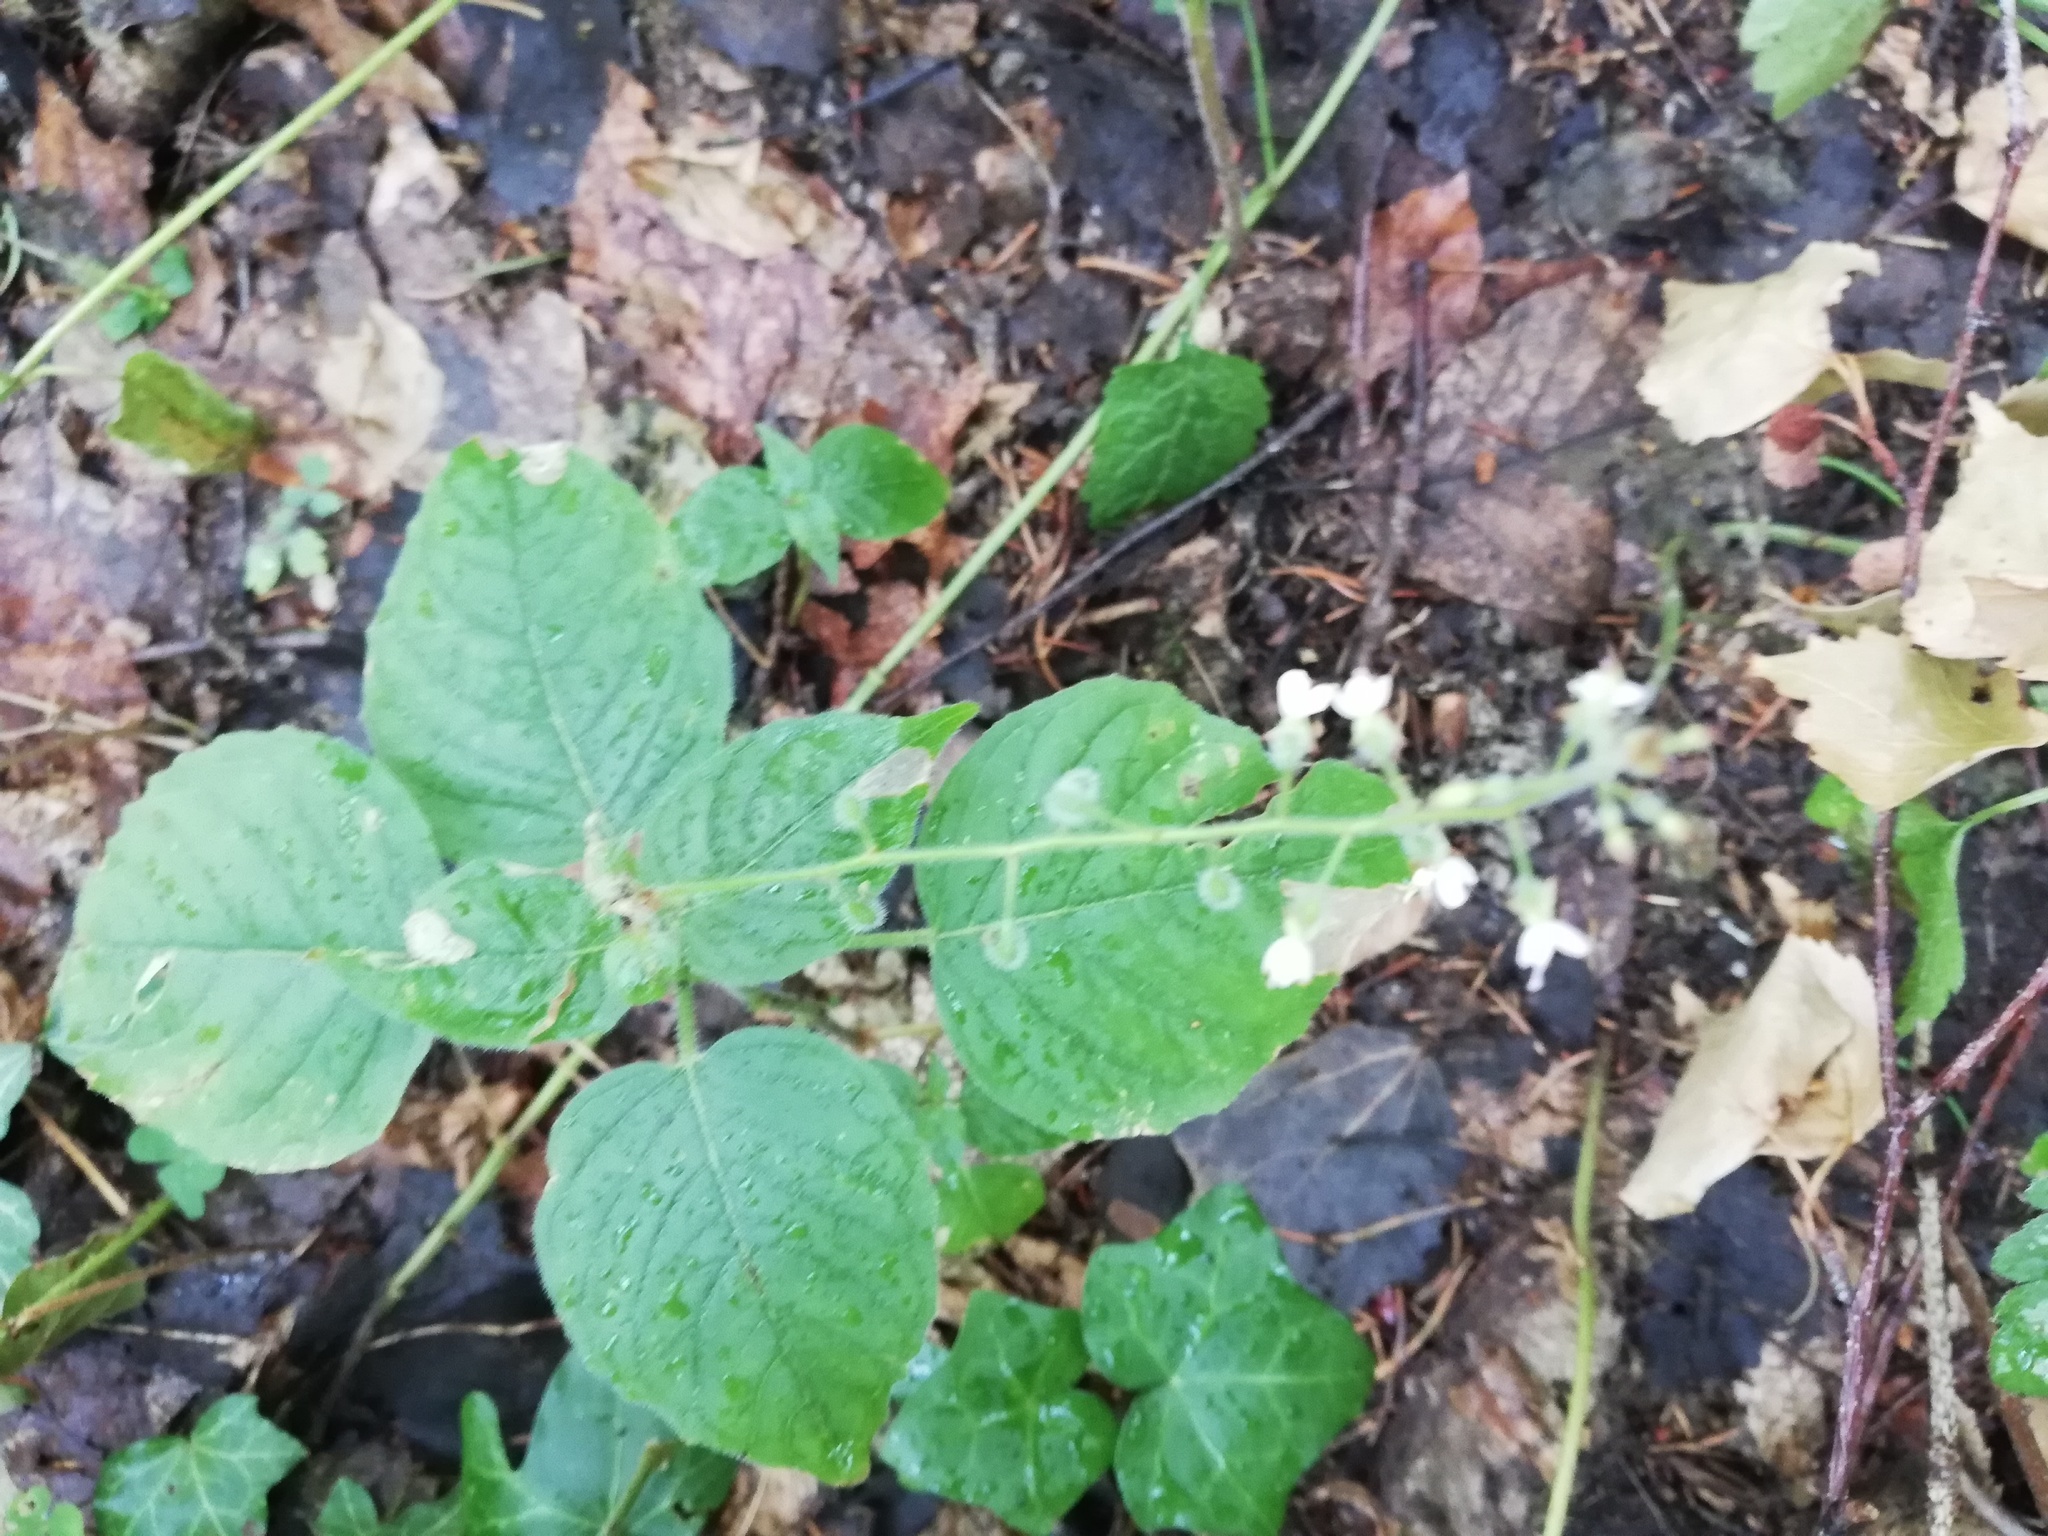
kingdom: Plantae
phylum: Tracheophyta
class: Magnoliopsida
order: Myrtales
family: Onagraceae
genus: Circaea
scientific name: Circaea lutetiana
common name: Enchanter's-nightshade
